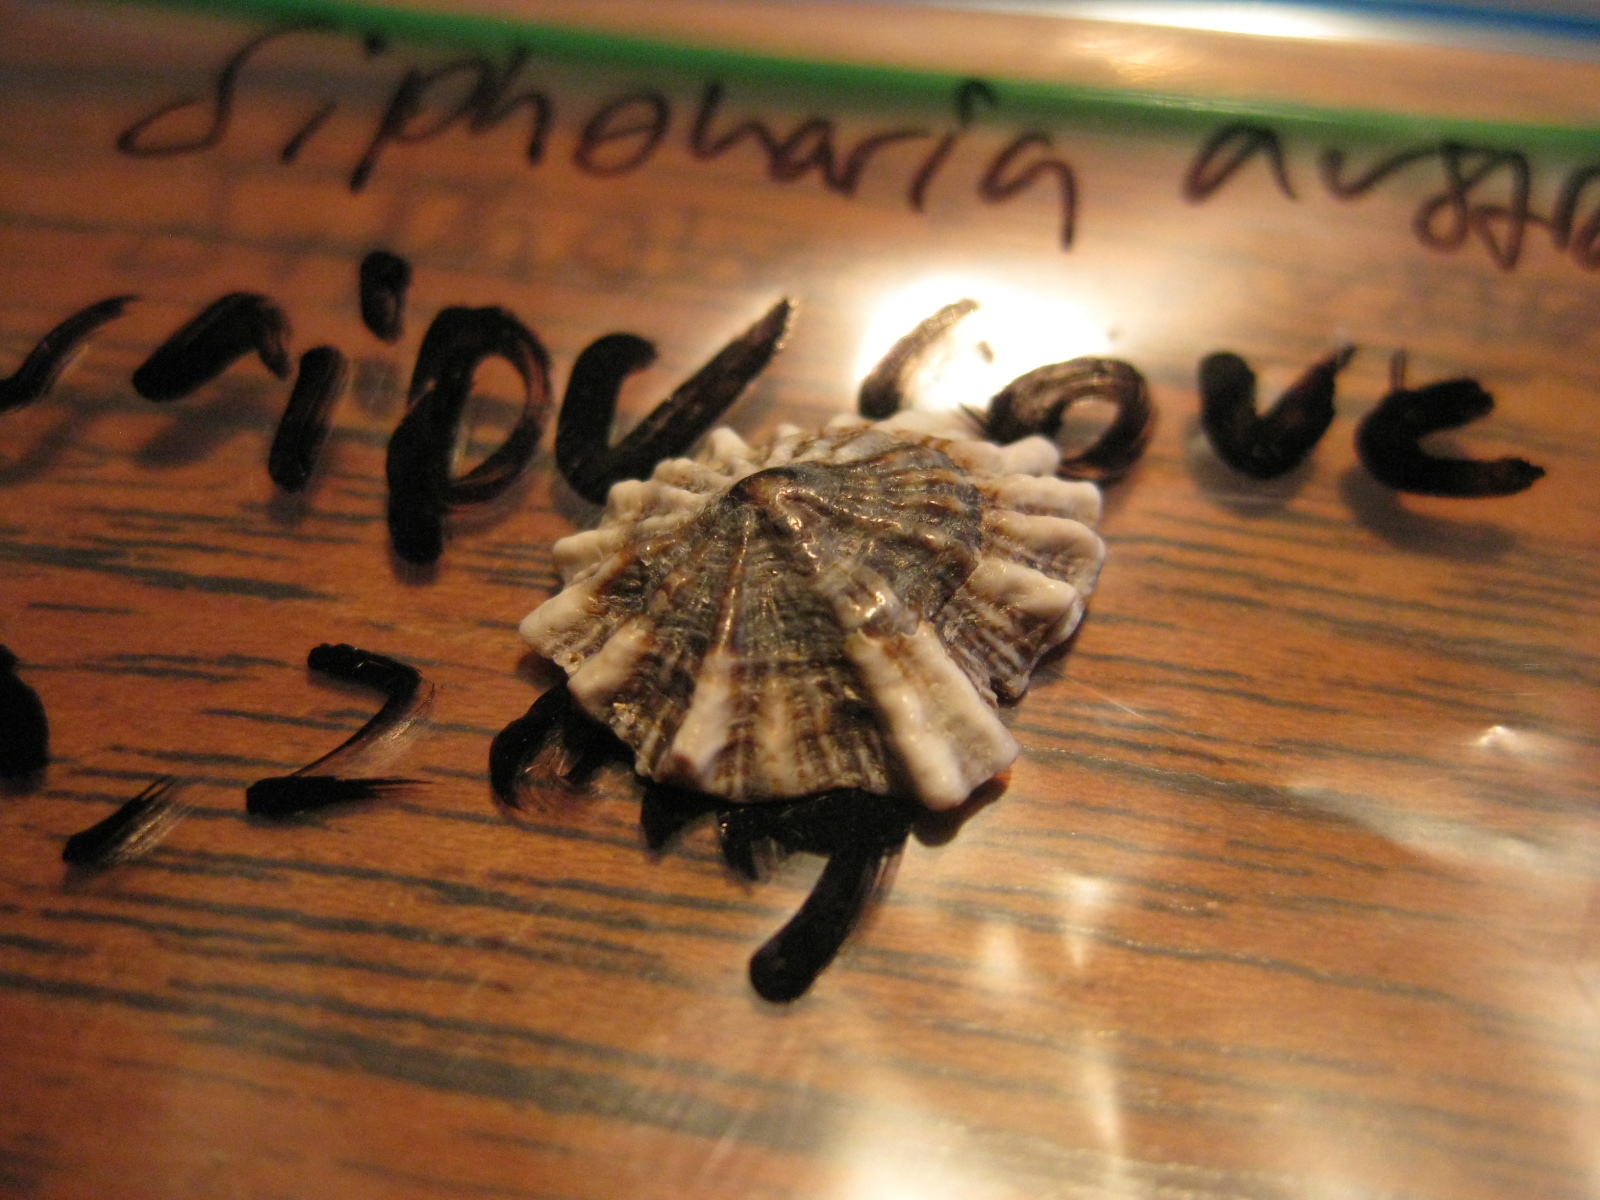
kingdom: Animalia
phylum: Mollusca
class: Gastropoda
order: Siphonariida
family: Siphonariidae
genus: Siphonaria
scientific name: Siphonaria australis
